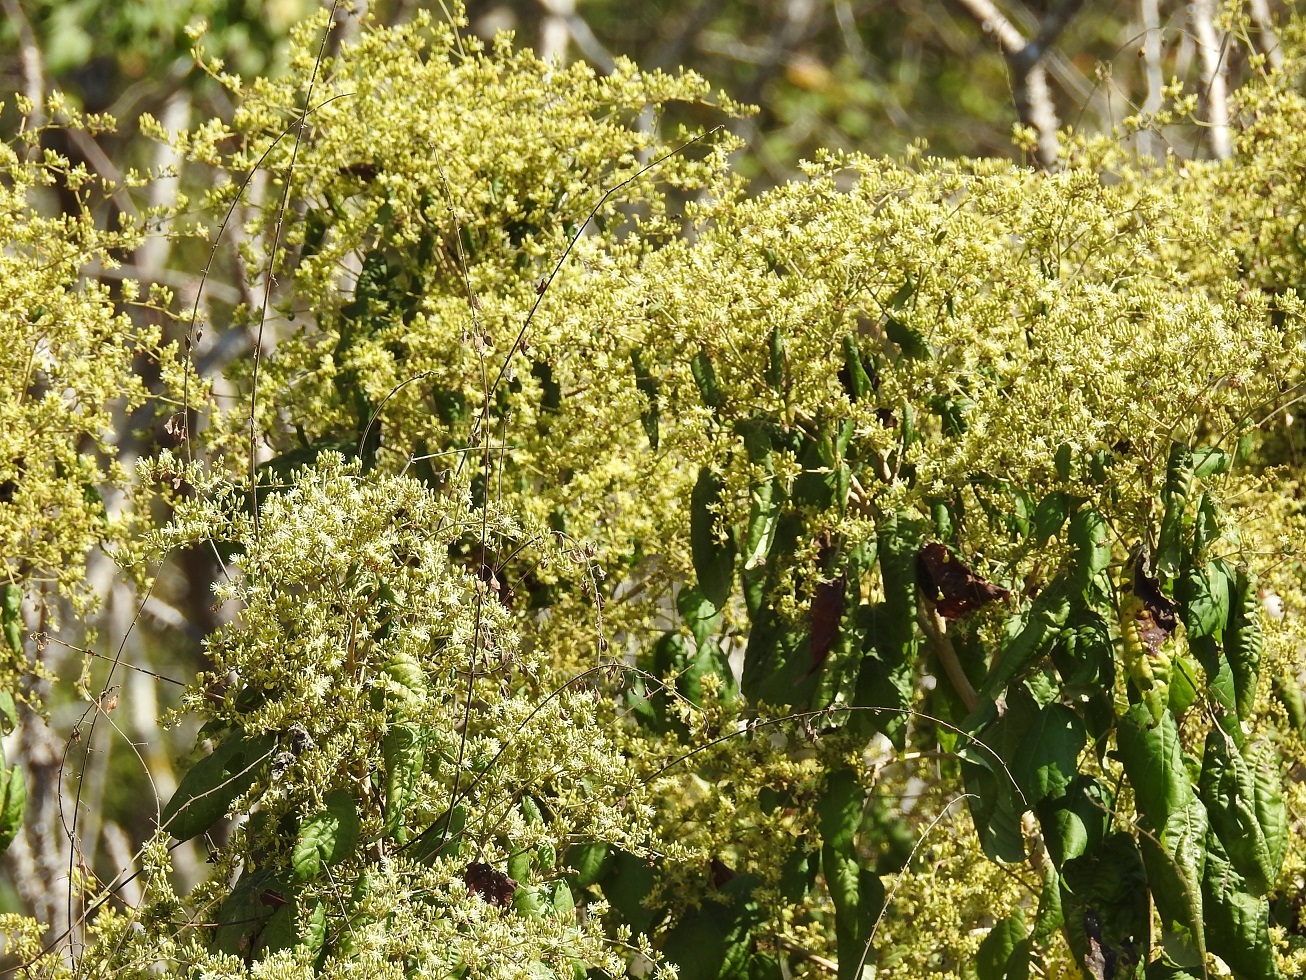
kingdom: Plantae
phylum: Tracheophyta
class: Magnoliopsida
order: Malvales
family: Malvaceae
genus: Heliocarpus
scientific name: Heliocarpus mexicanus
